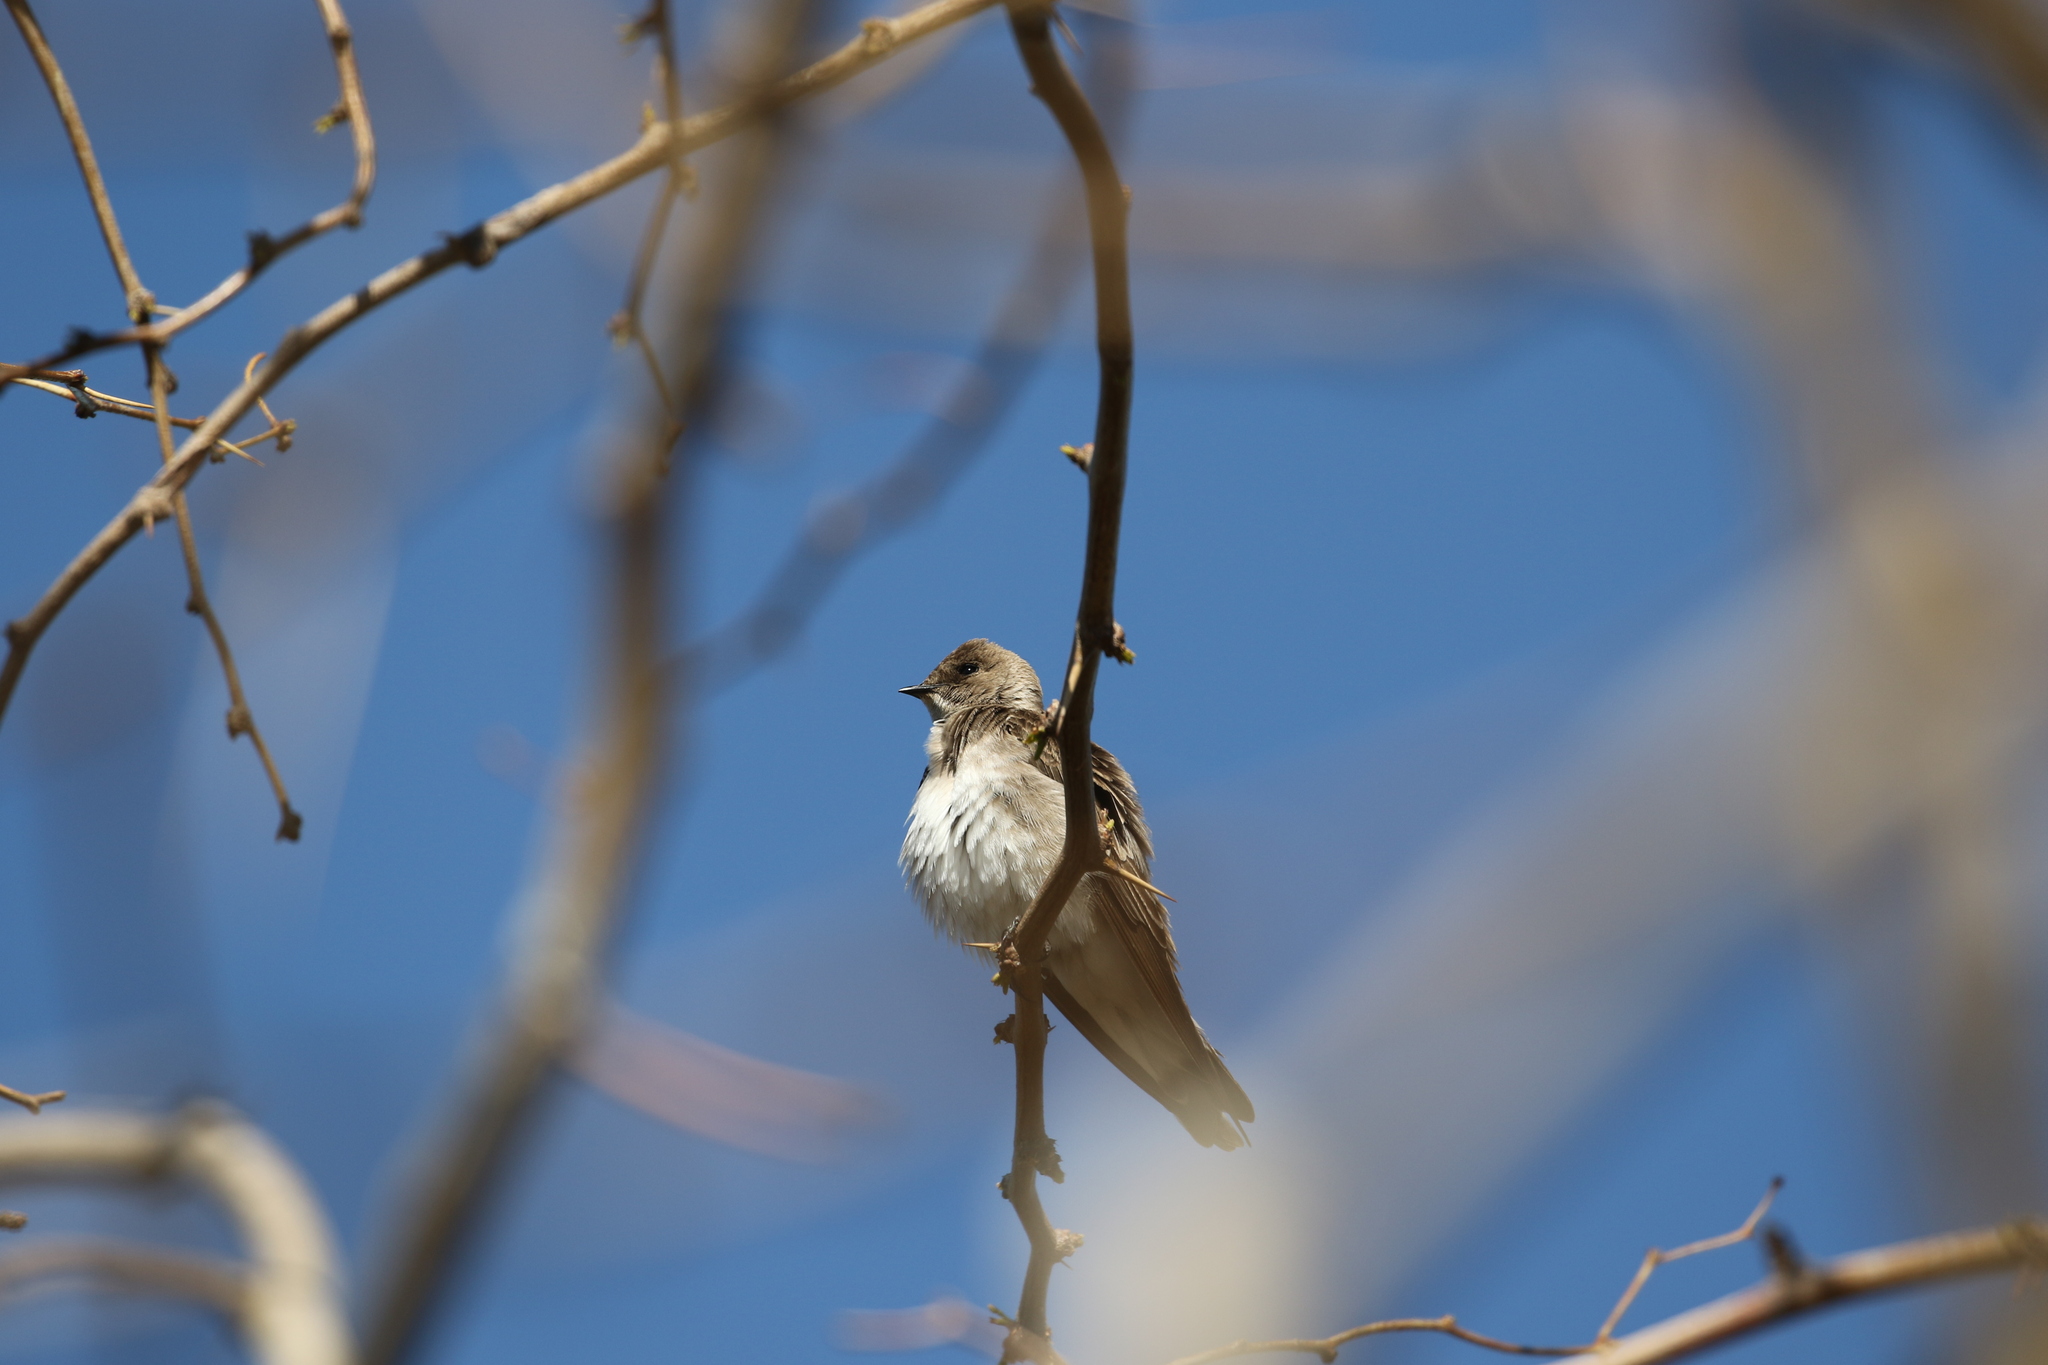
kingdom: Animalia
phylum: Chordata
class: Aves
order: Passeriformes
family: Hirundinidae
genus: Stelgidopteryx
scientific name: Stelgidopteryx serripennis
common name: Northern rough-winged swallow
